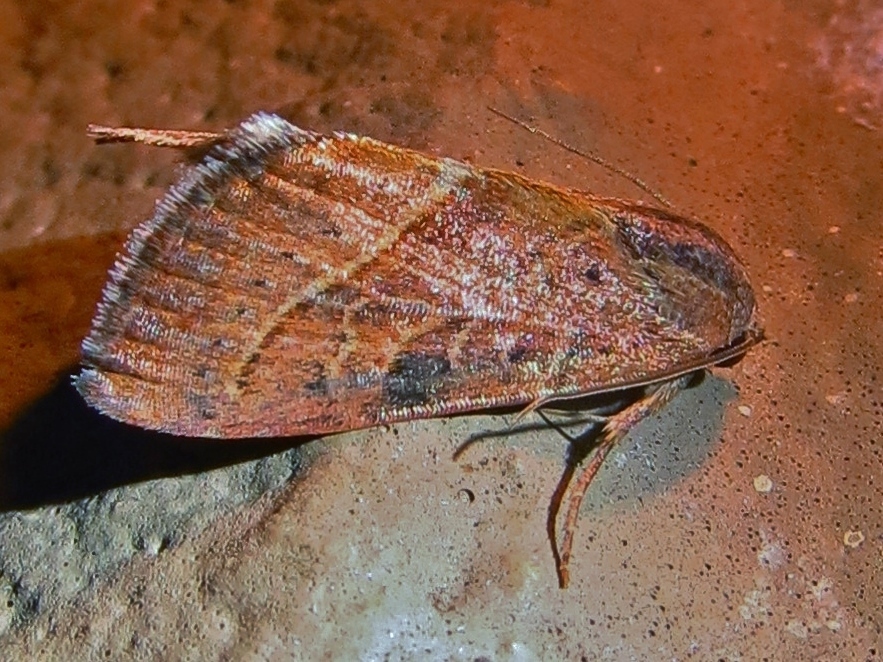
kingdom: Animalia
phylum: Arthropoda
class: Insecta
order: Lepidoptera
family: Noctuidae
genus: Galgula
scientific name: Galgula partita
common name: Wedgeling
